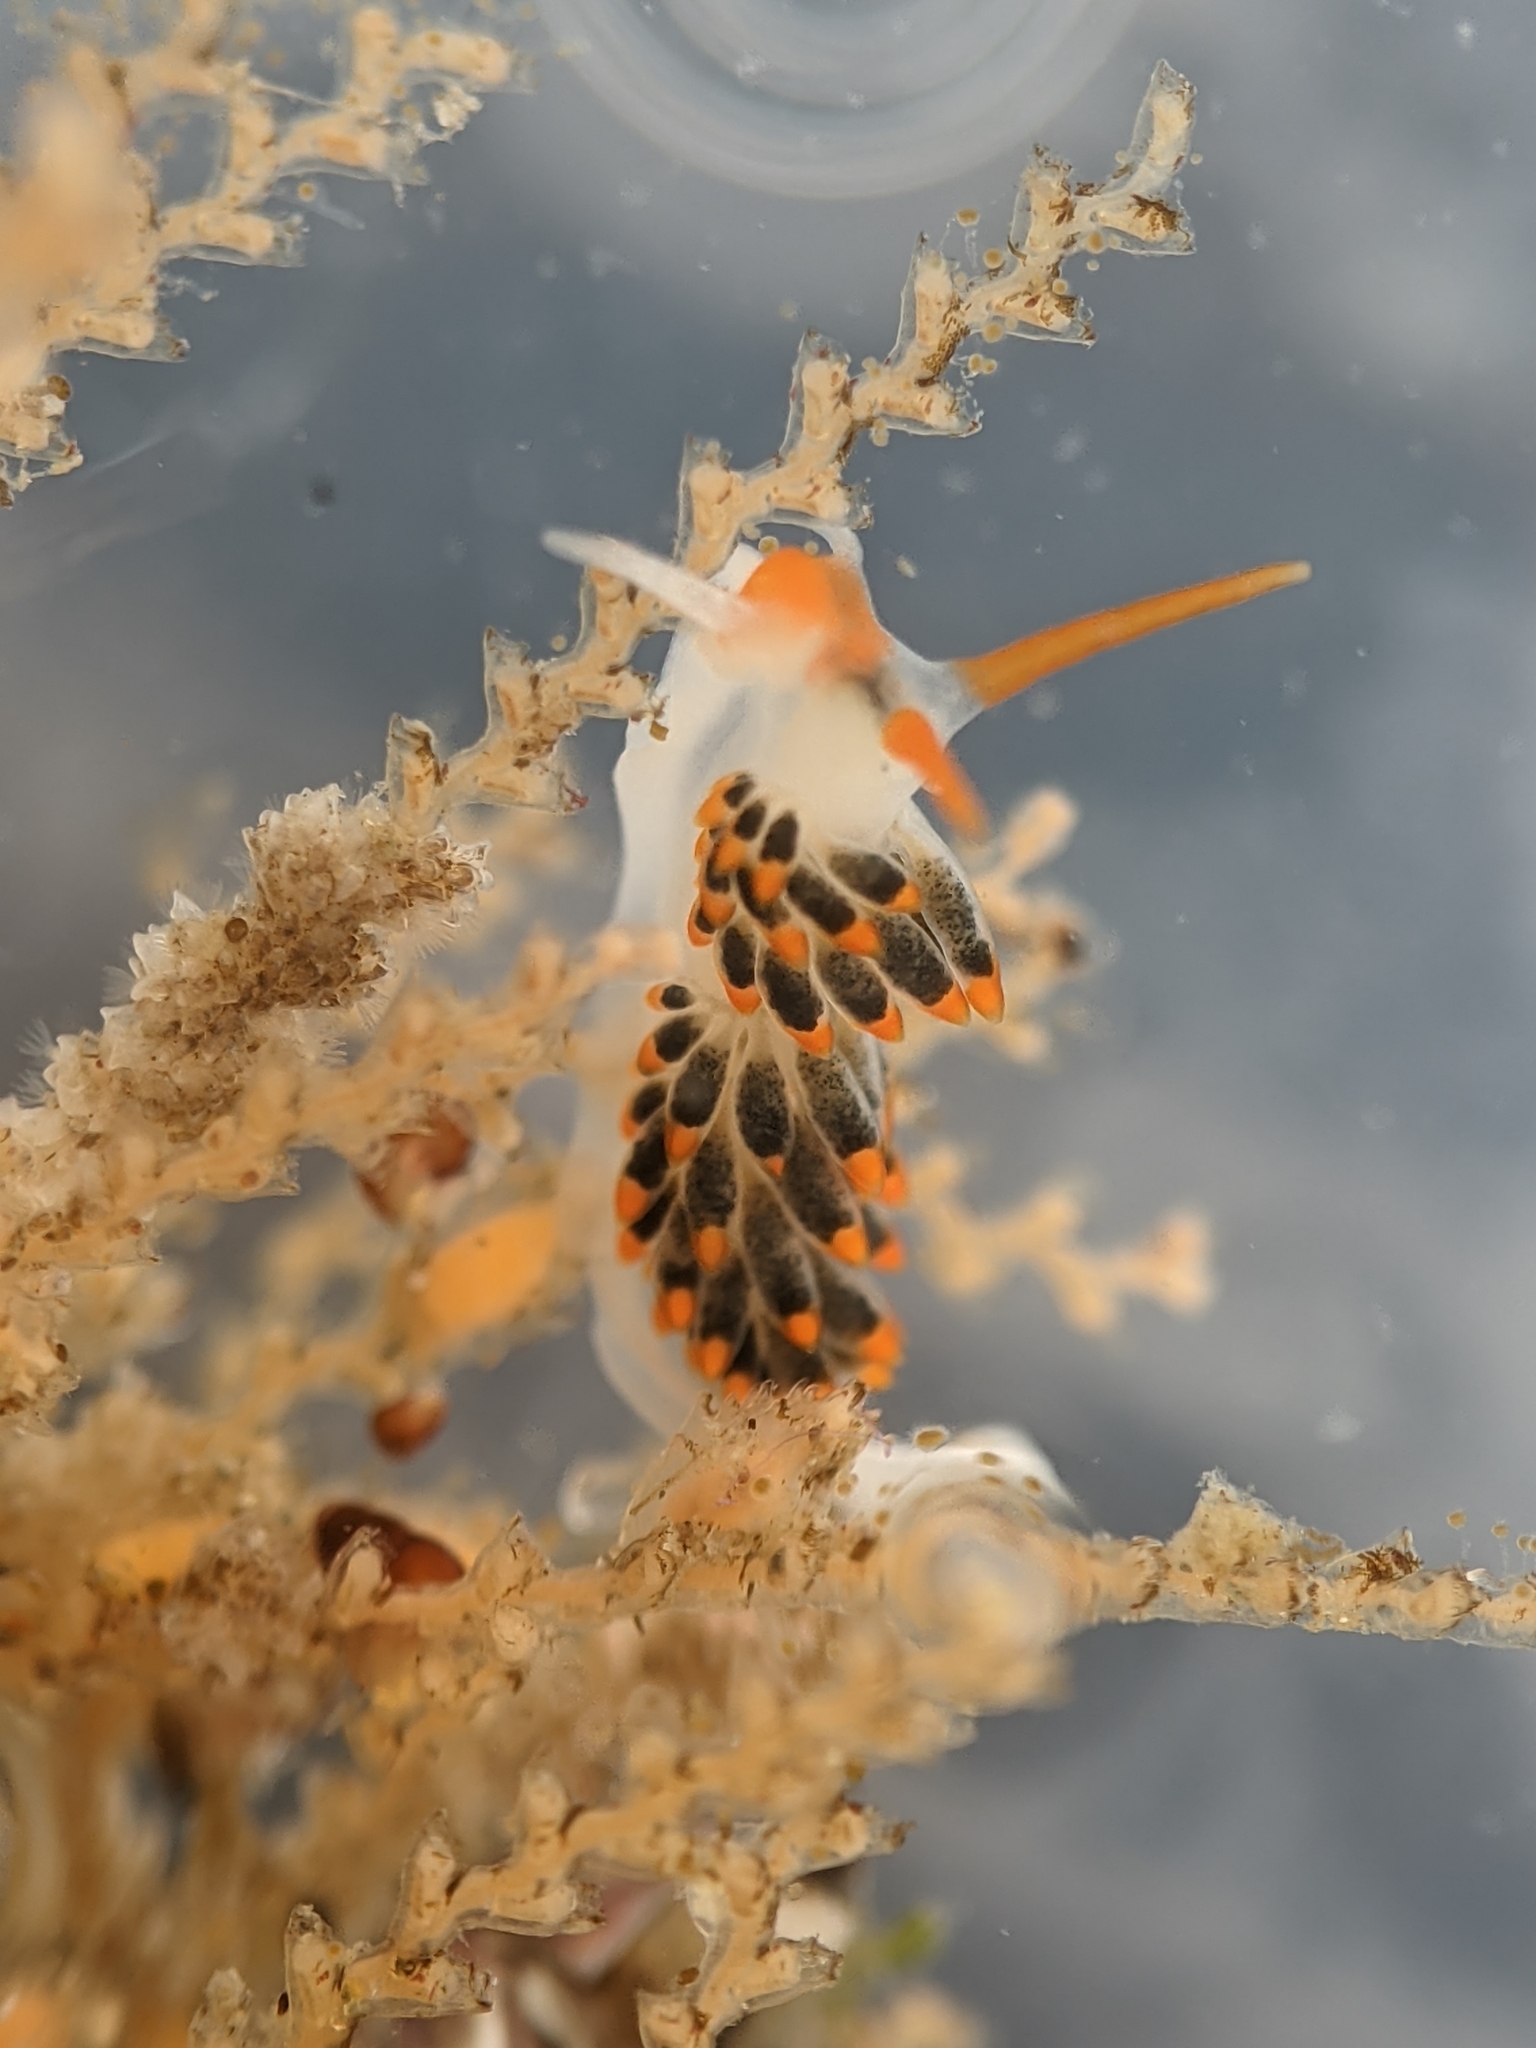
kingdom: Animalia
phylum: Mollusca
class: Gastropoda
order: Nudibranchia
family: Trinchesiidae
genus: Diaphoreolis
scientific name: Diaphoreolis lagunae
